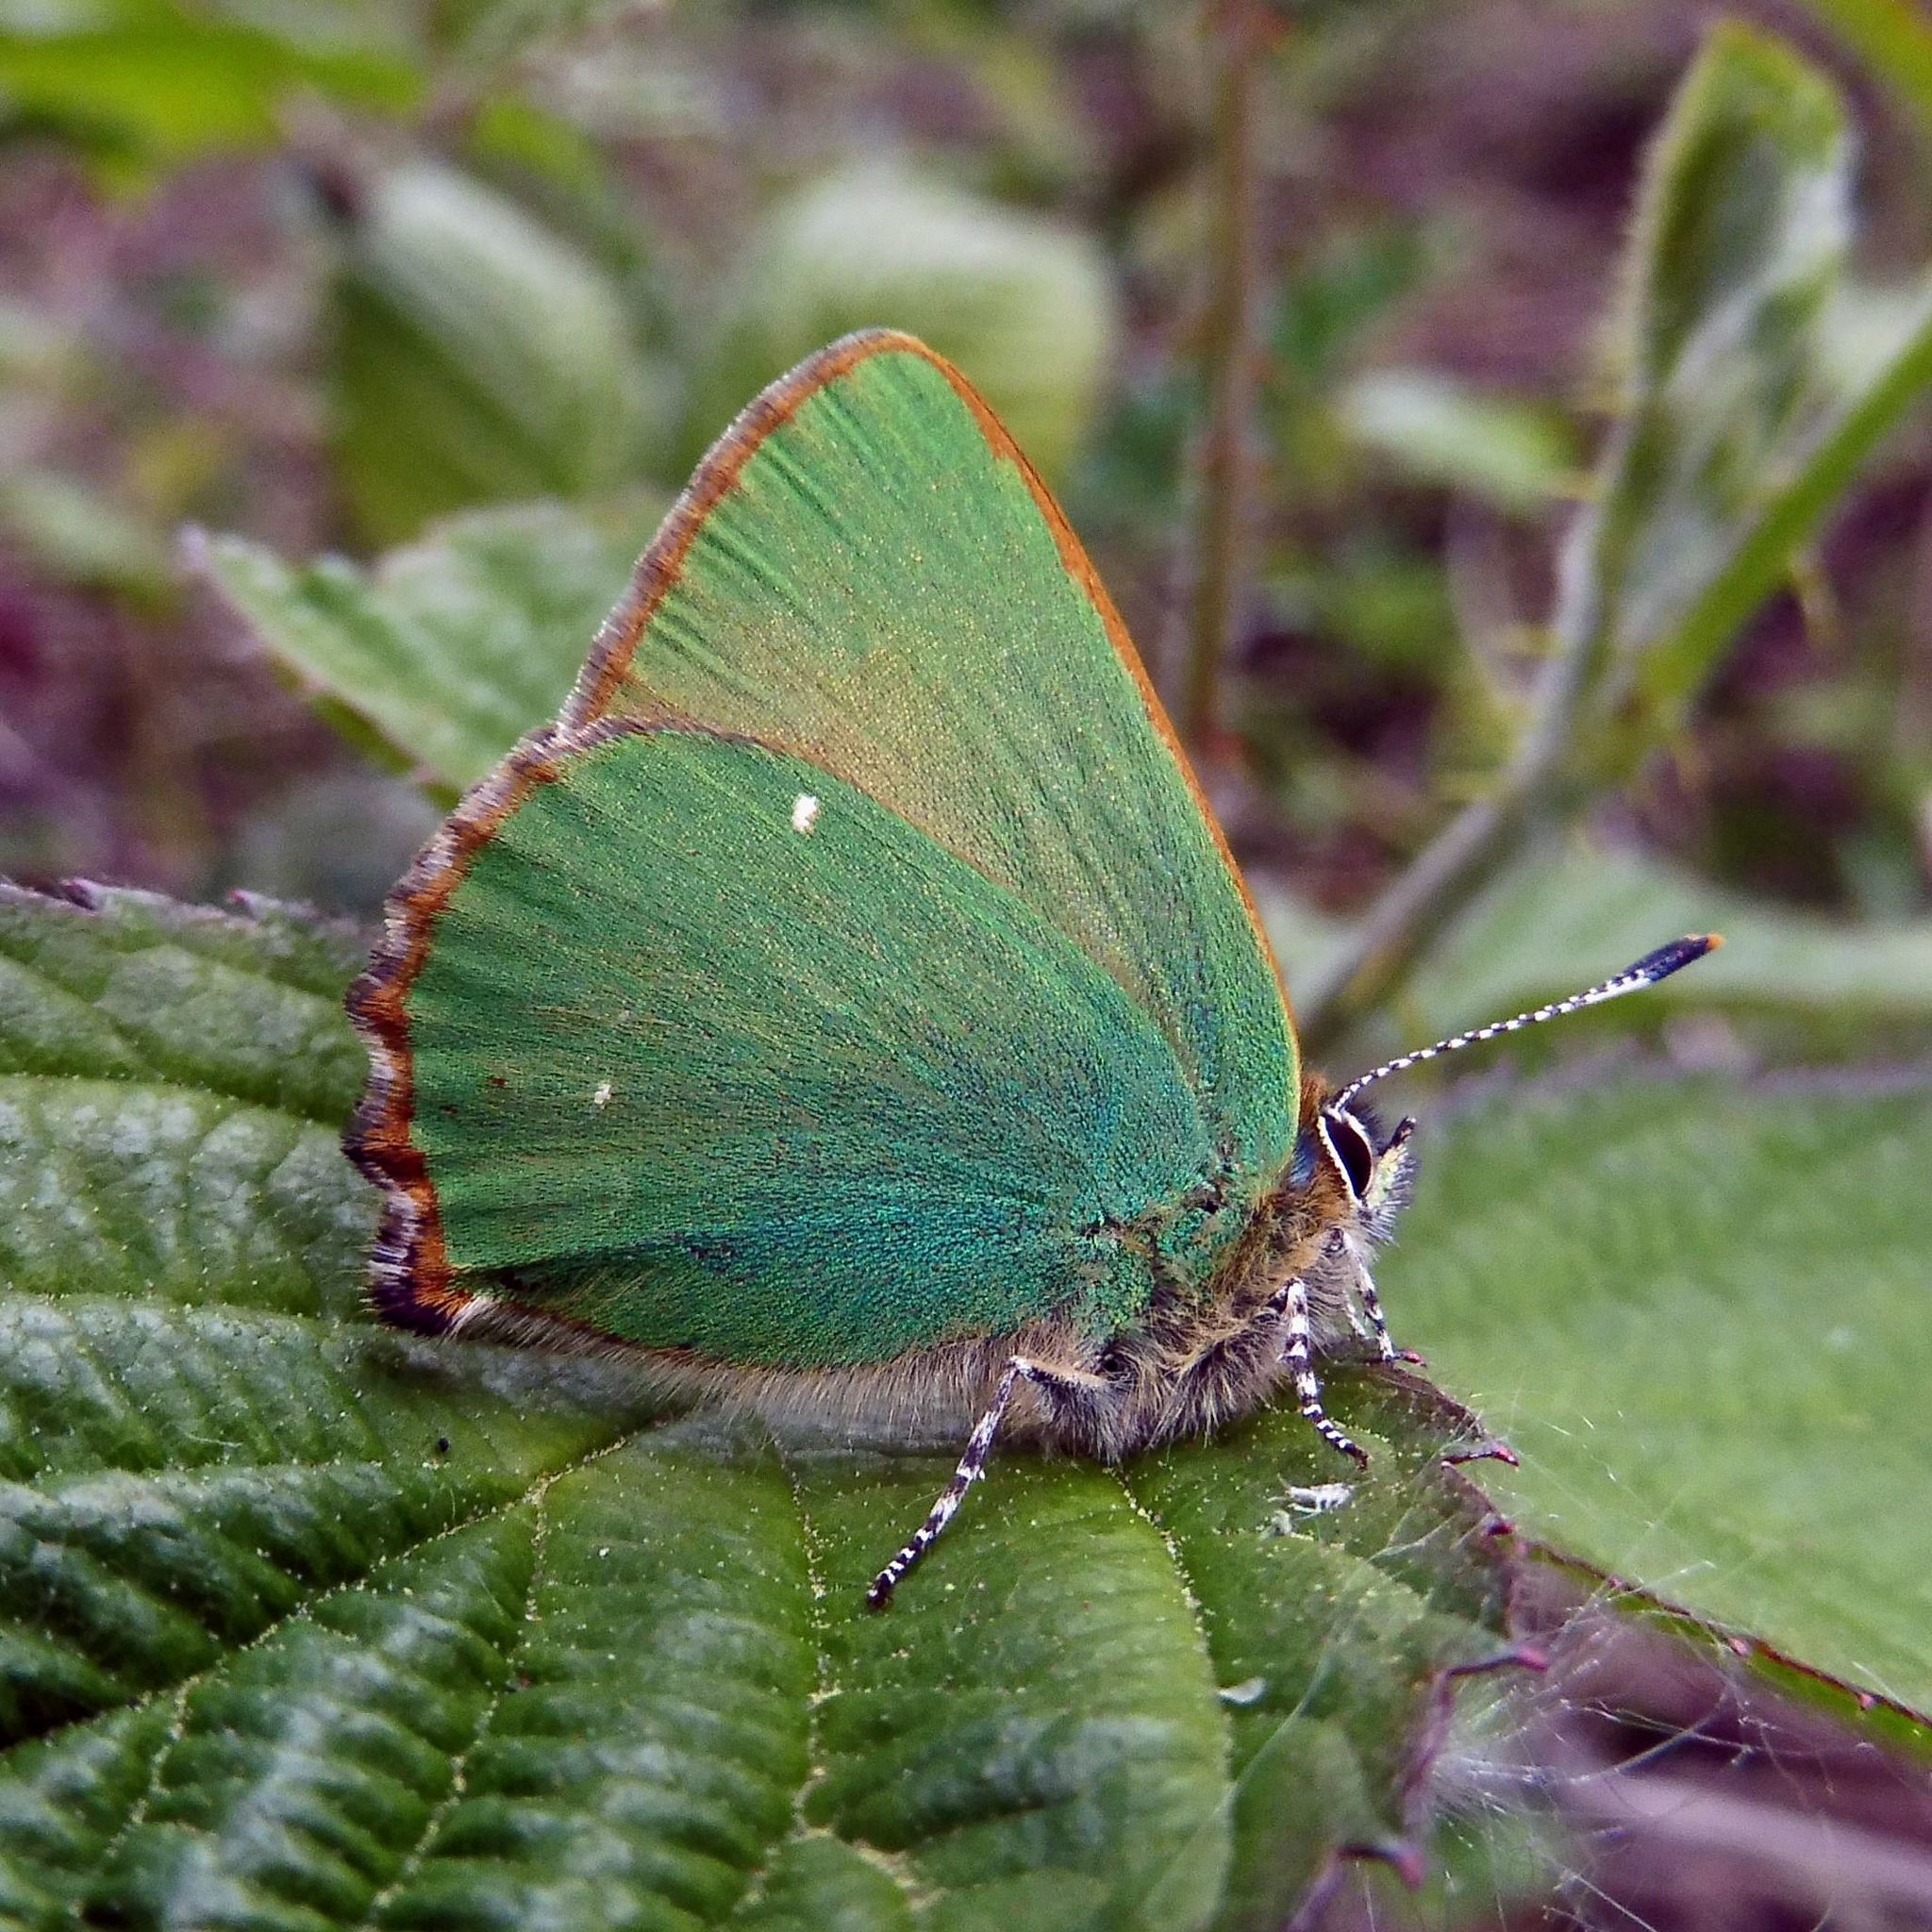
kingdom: Animalia
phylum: Arthropoda
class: Insecta
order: Lepidoptera
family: Lycaenidae
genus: Callophrys
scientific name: Callophrys rubi
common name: Green hairstreak
